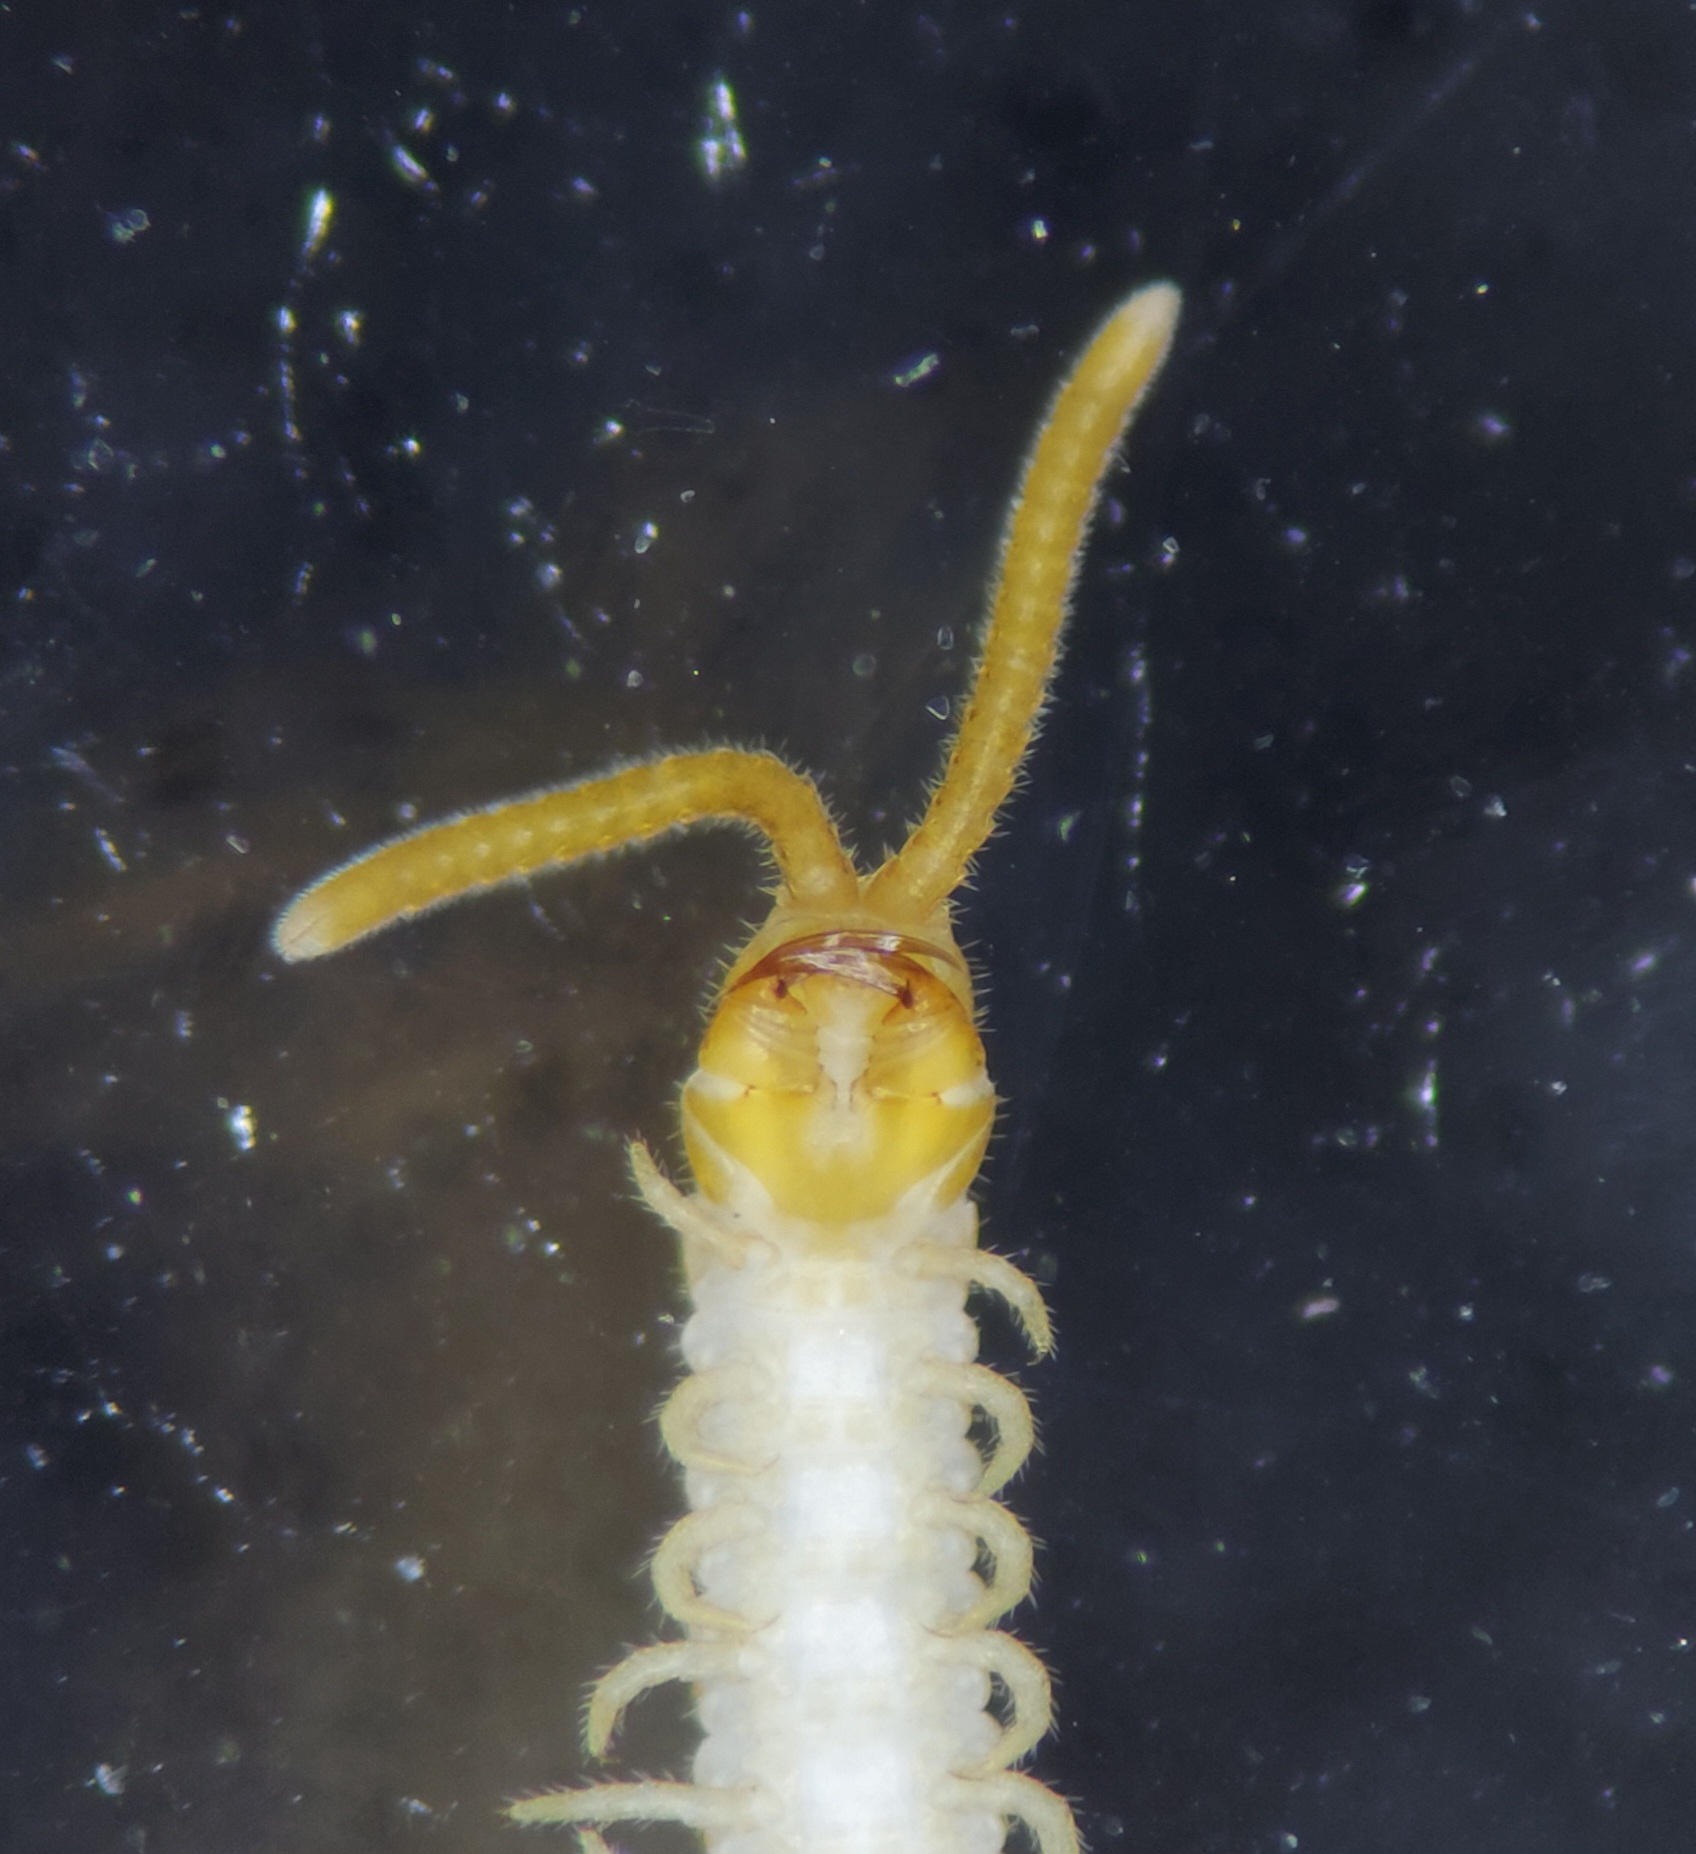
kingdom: Animalia
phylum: Arthropoda
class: Chilopoda
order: Geophilomorpha
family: Linotaeniidae
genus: Agathothus
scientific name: Agathothus gracilis
